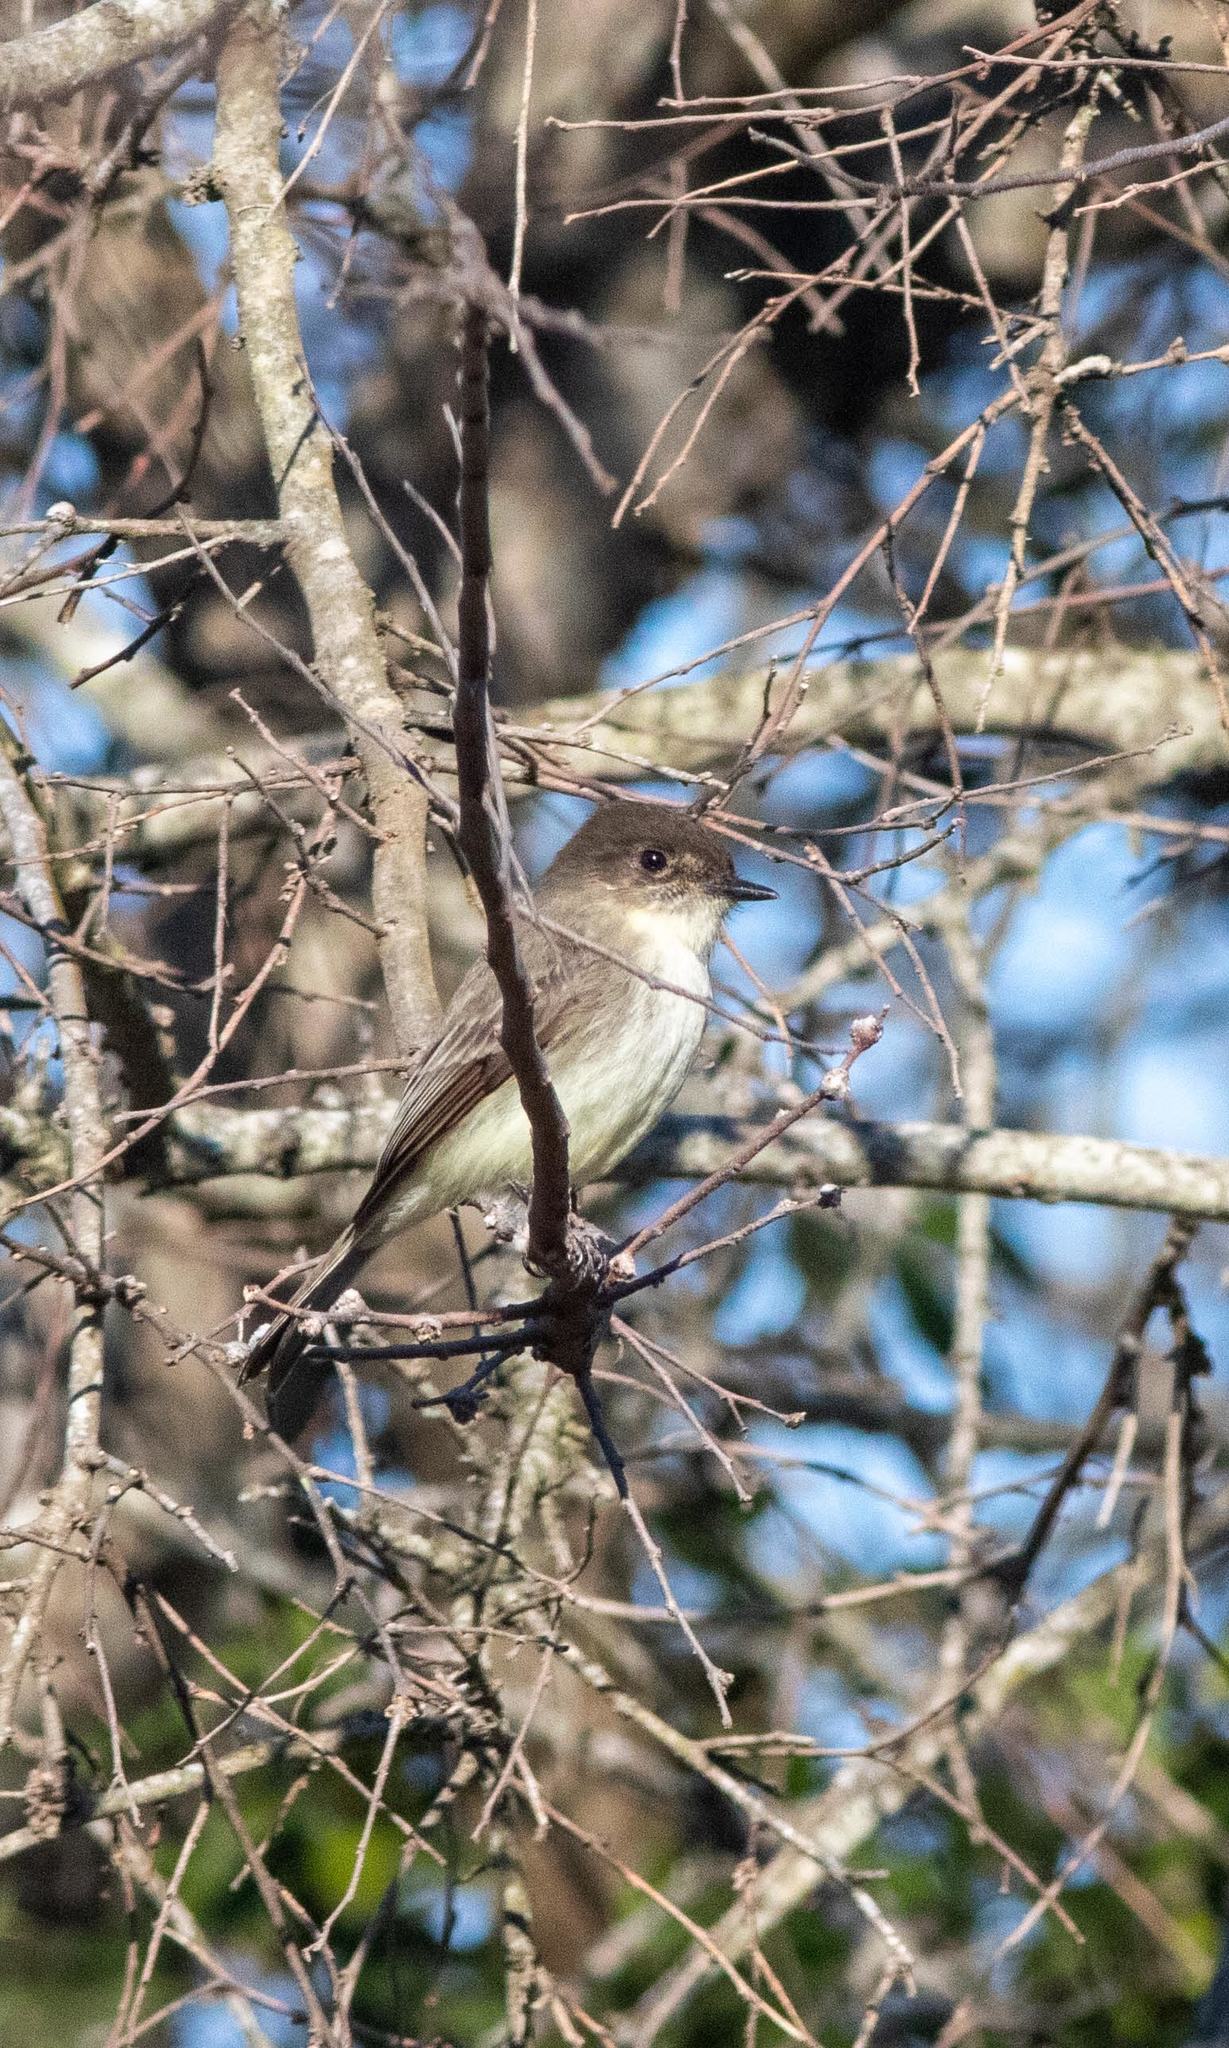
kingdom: Animalia
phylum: Chordata
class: Aves
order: Passeriformes
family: Tyrannidae
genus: Sayornis
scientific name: Sayornis phoebe
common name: Eastern phoebe
